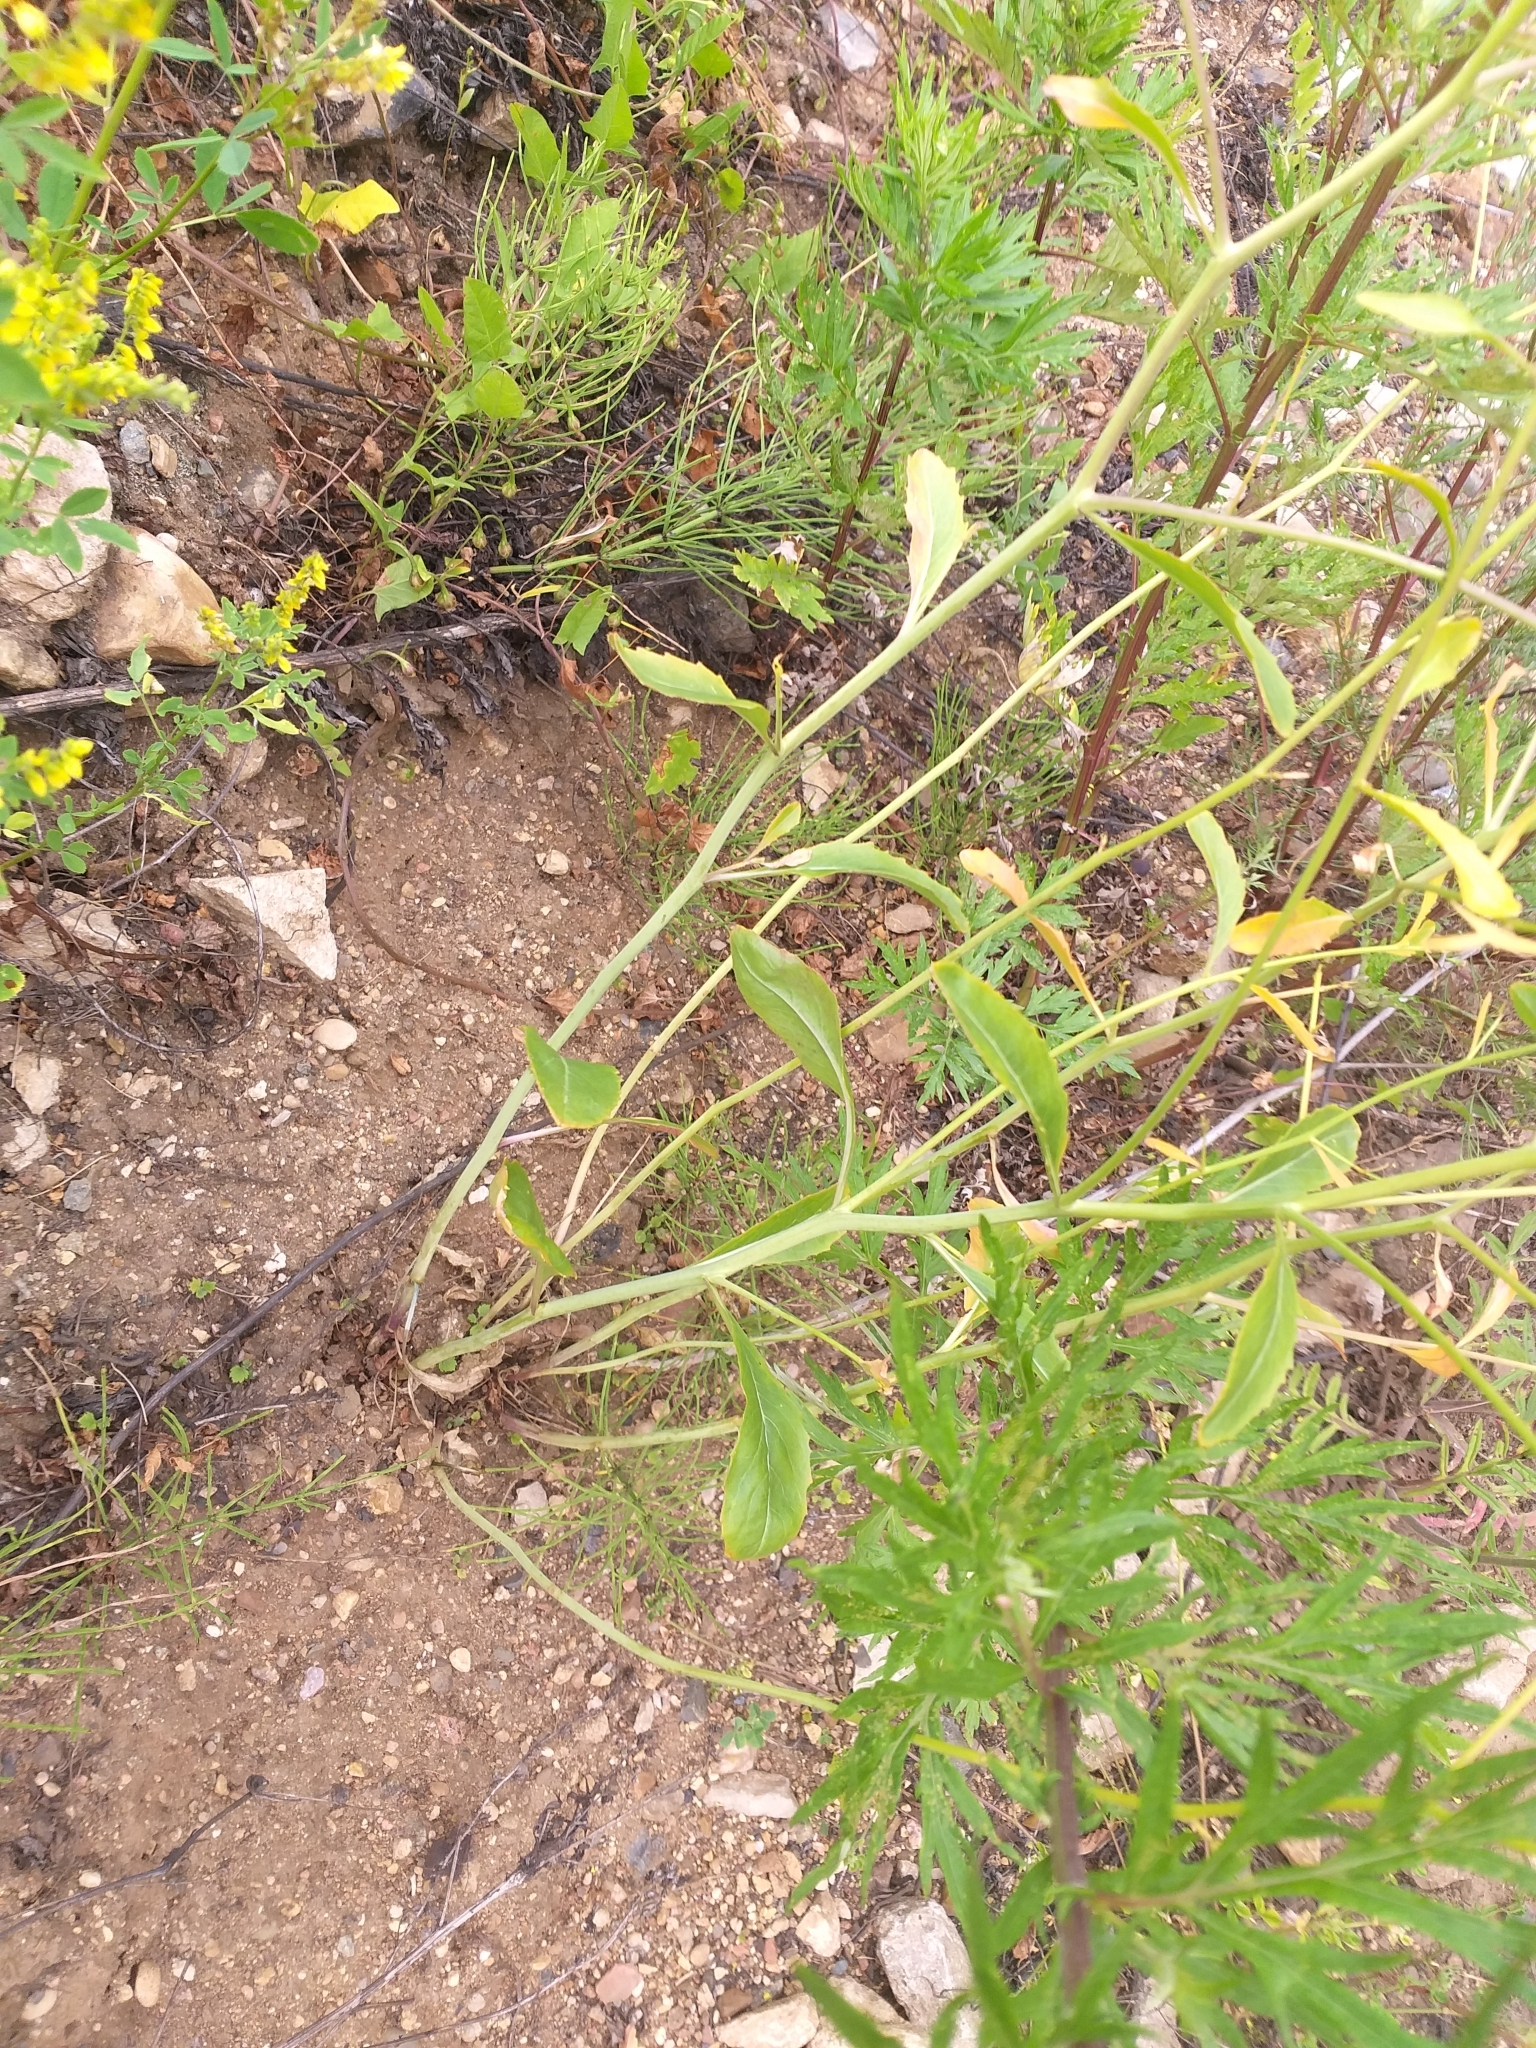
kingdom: Plantae
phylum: Tracheophyta
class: Magnoliopsida
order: Brassicales
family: Brassicaceae
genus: Brassica
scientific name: Brassica elongata
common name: Long-stalked rape
